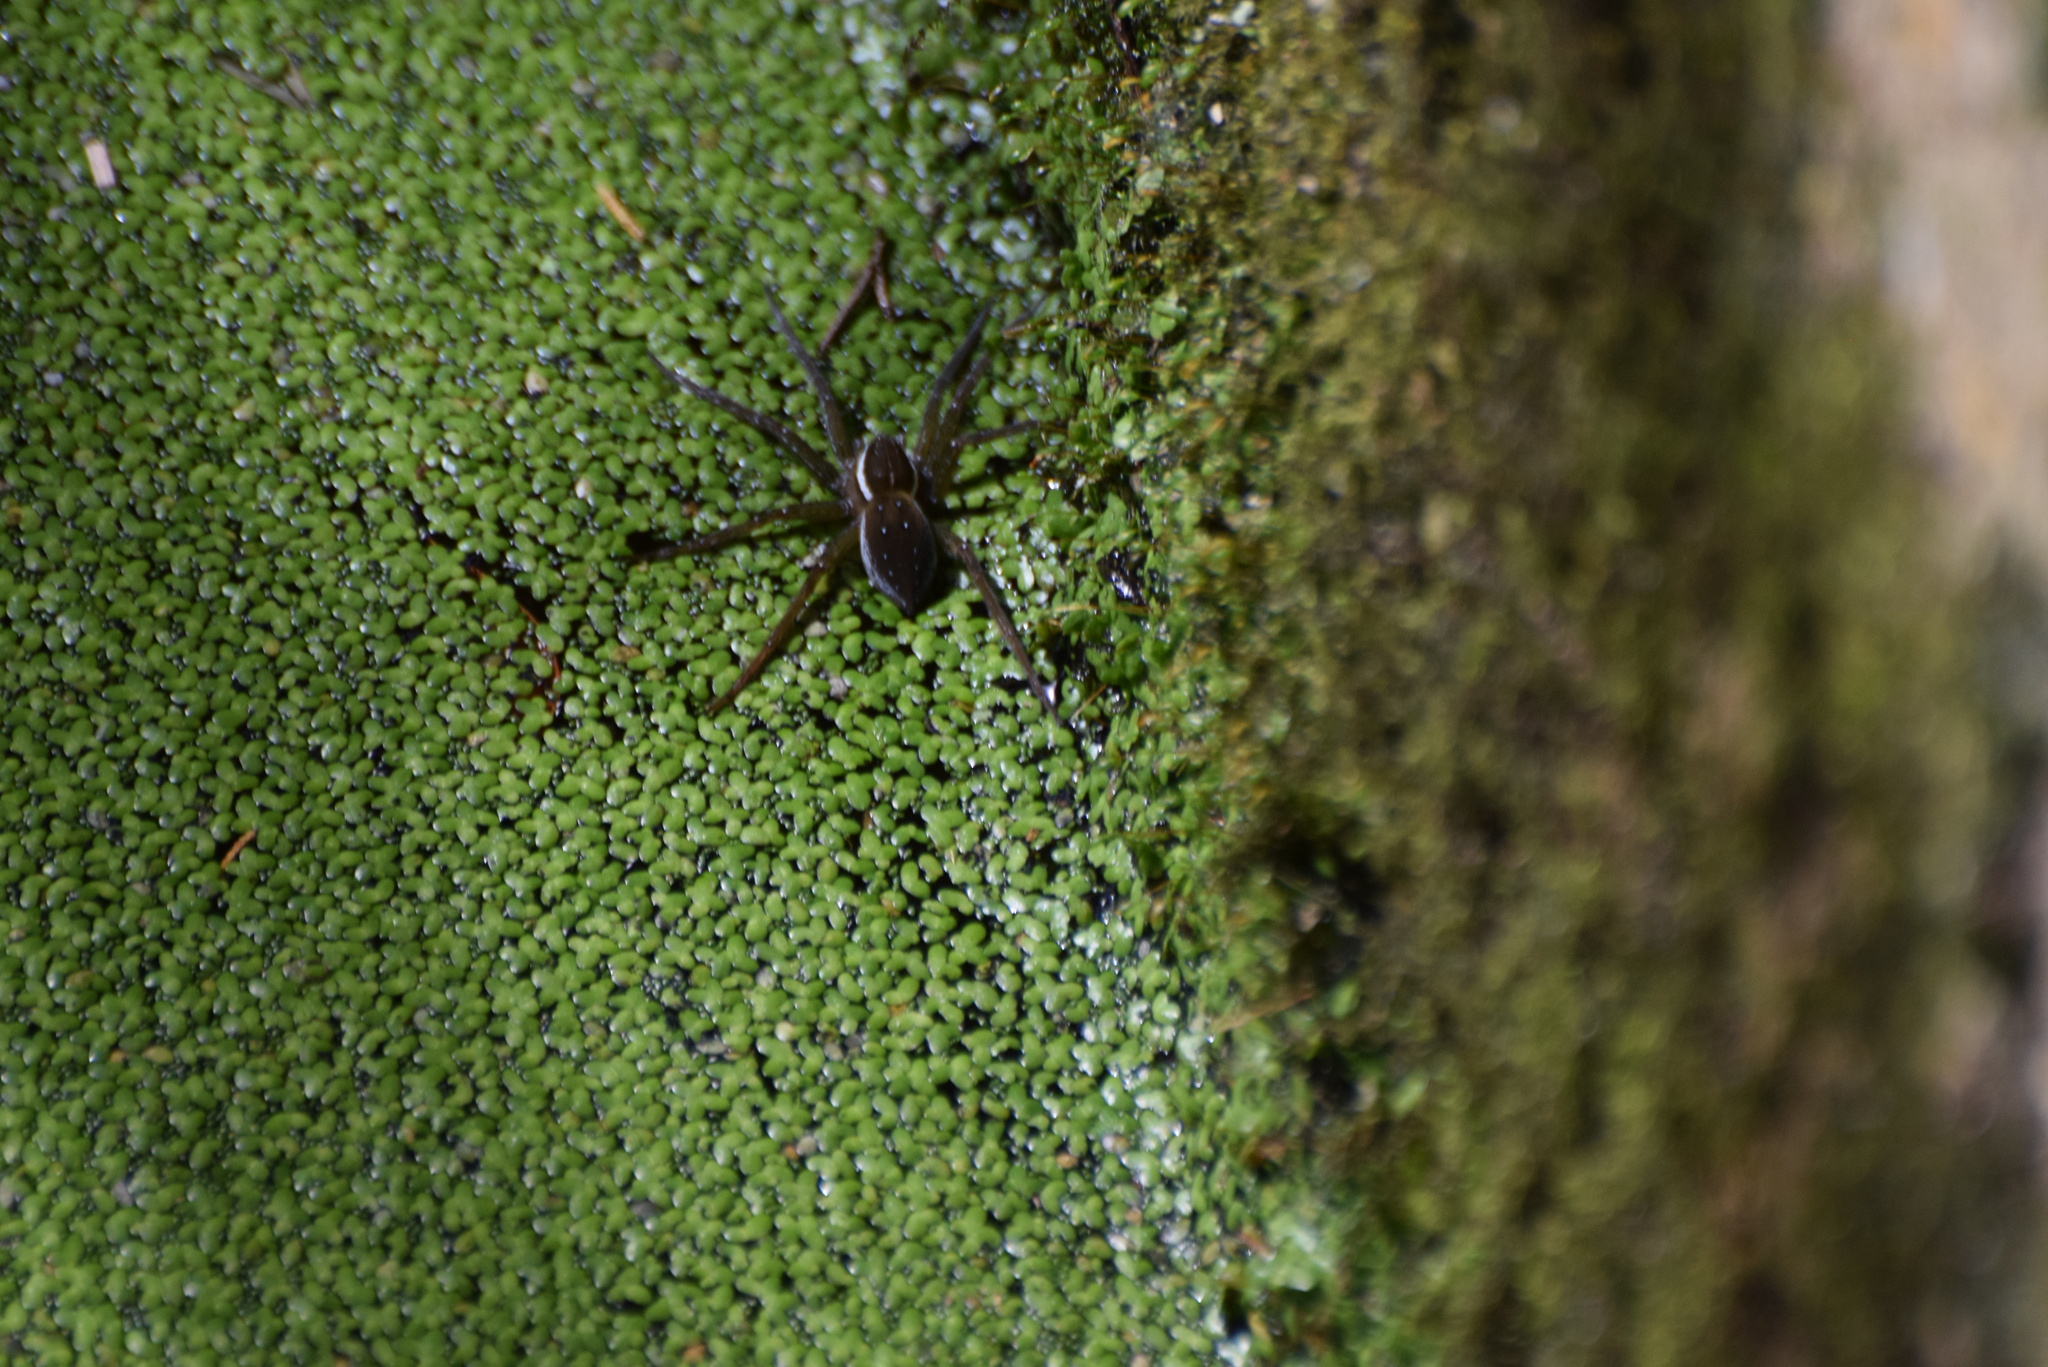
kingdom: Animalia
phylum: Arthropoda
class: Arachnida
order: Araneae
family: Pisauridae
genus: Dolomedes
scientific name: Dolomedes triton
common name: Six-spotted fishing spider
